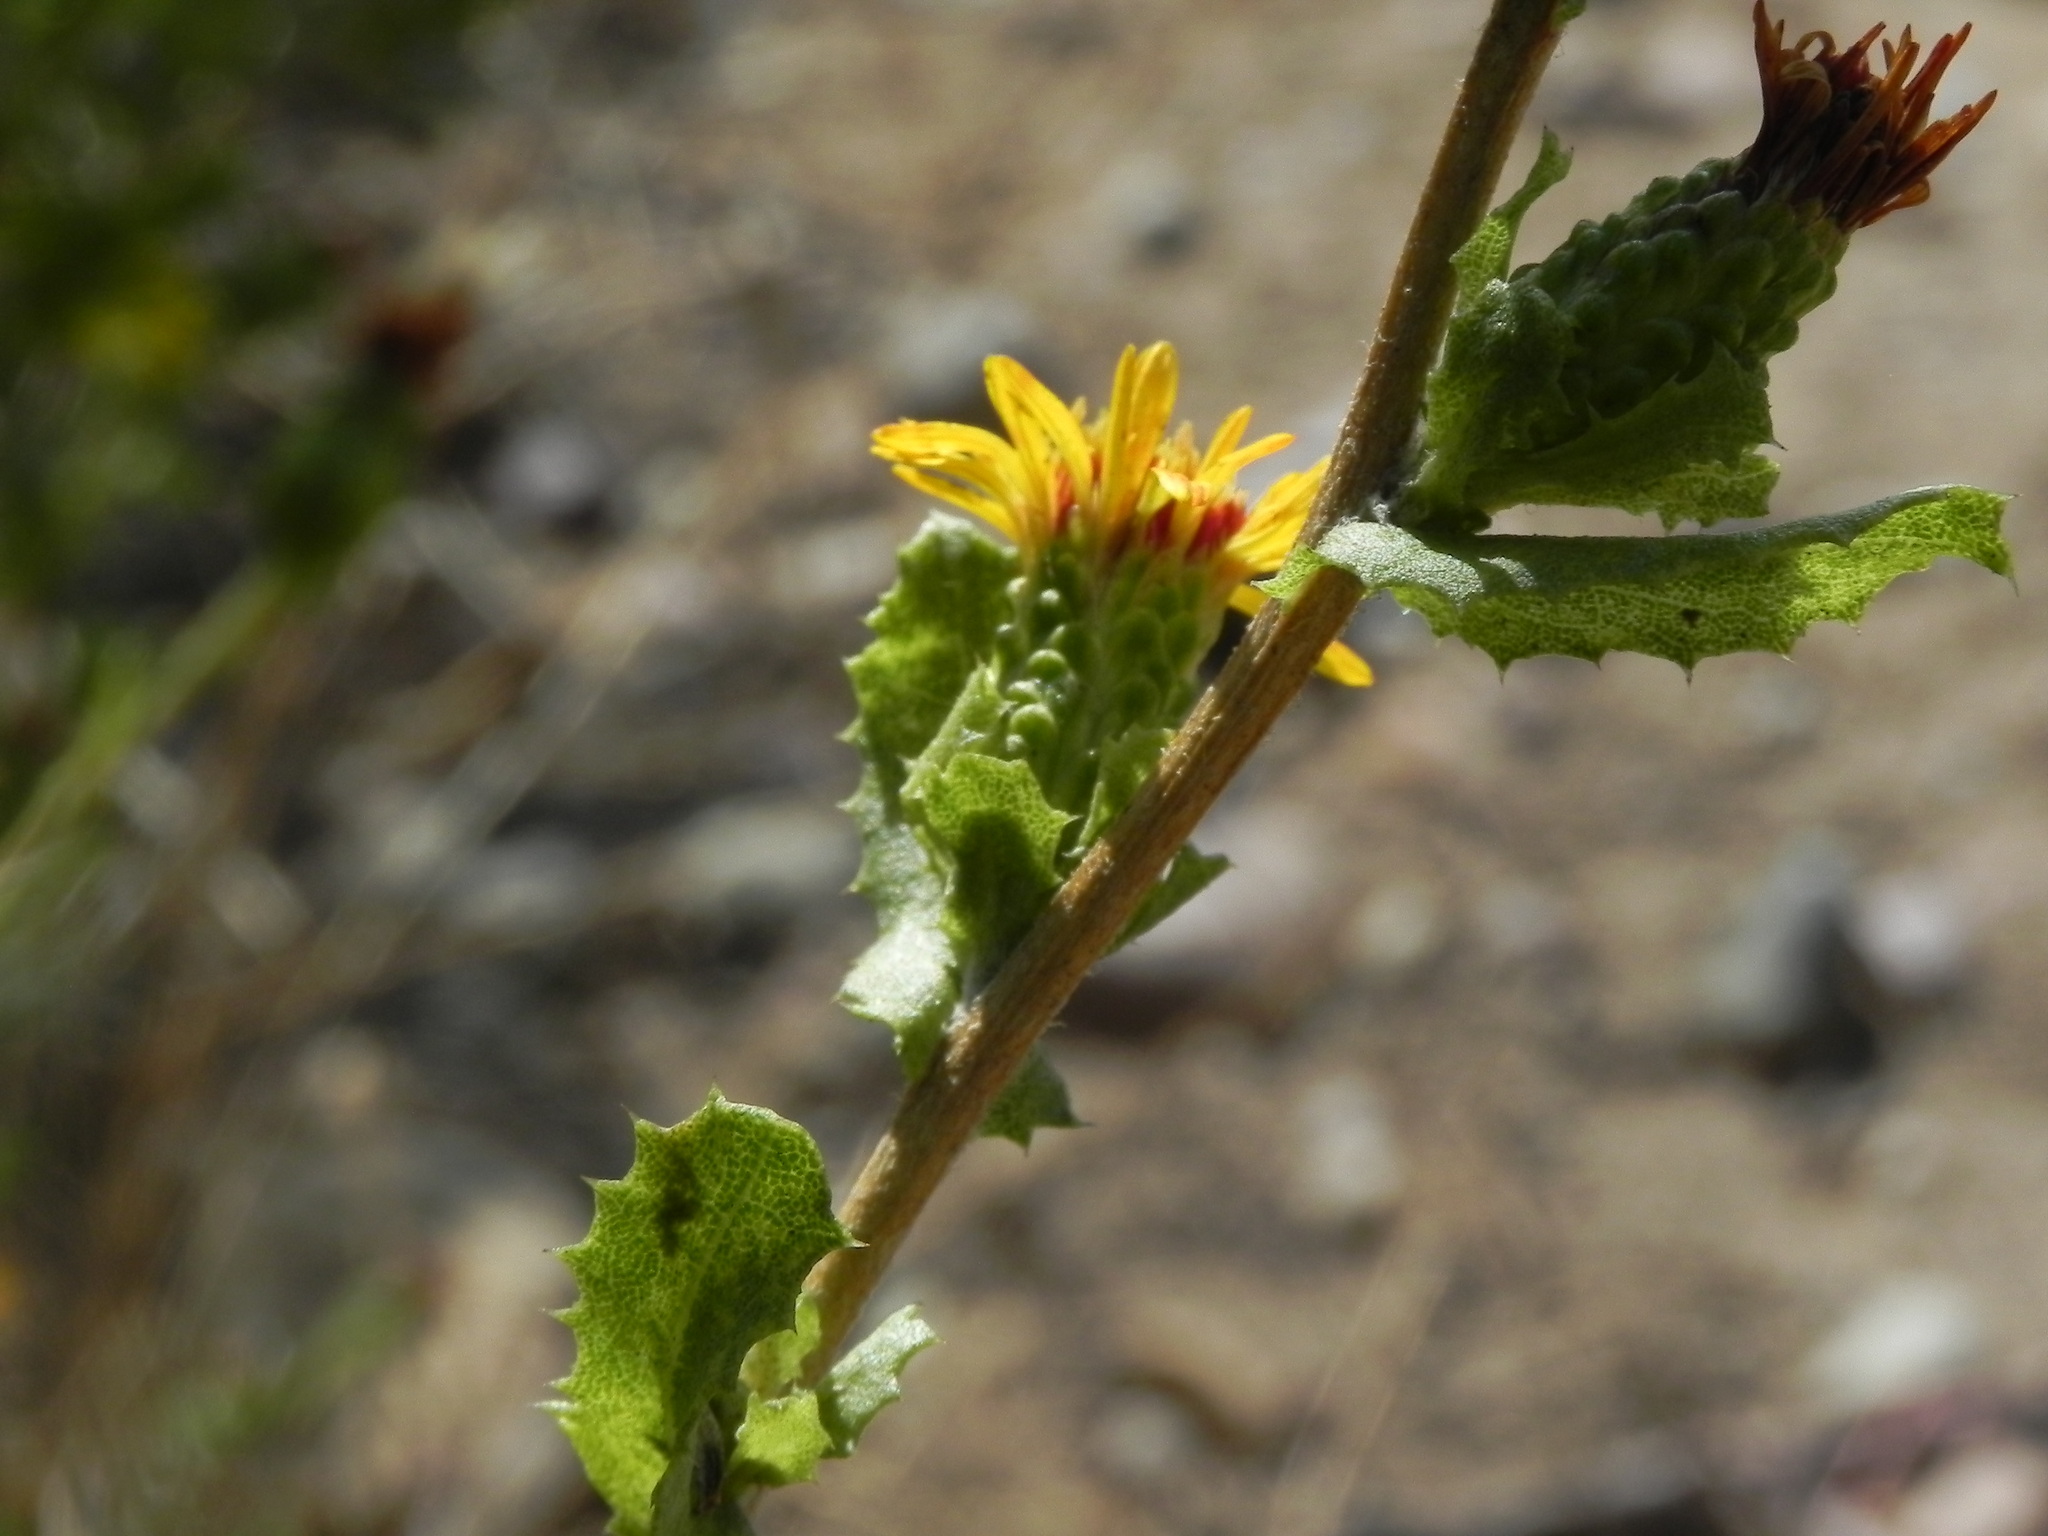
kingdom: Plantae
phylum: Tracheophyta
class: Magnoliopsida
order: Asterales
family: Asteraceae
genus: Hazardia
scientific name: Hazardia berberidis
